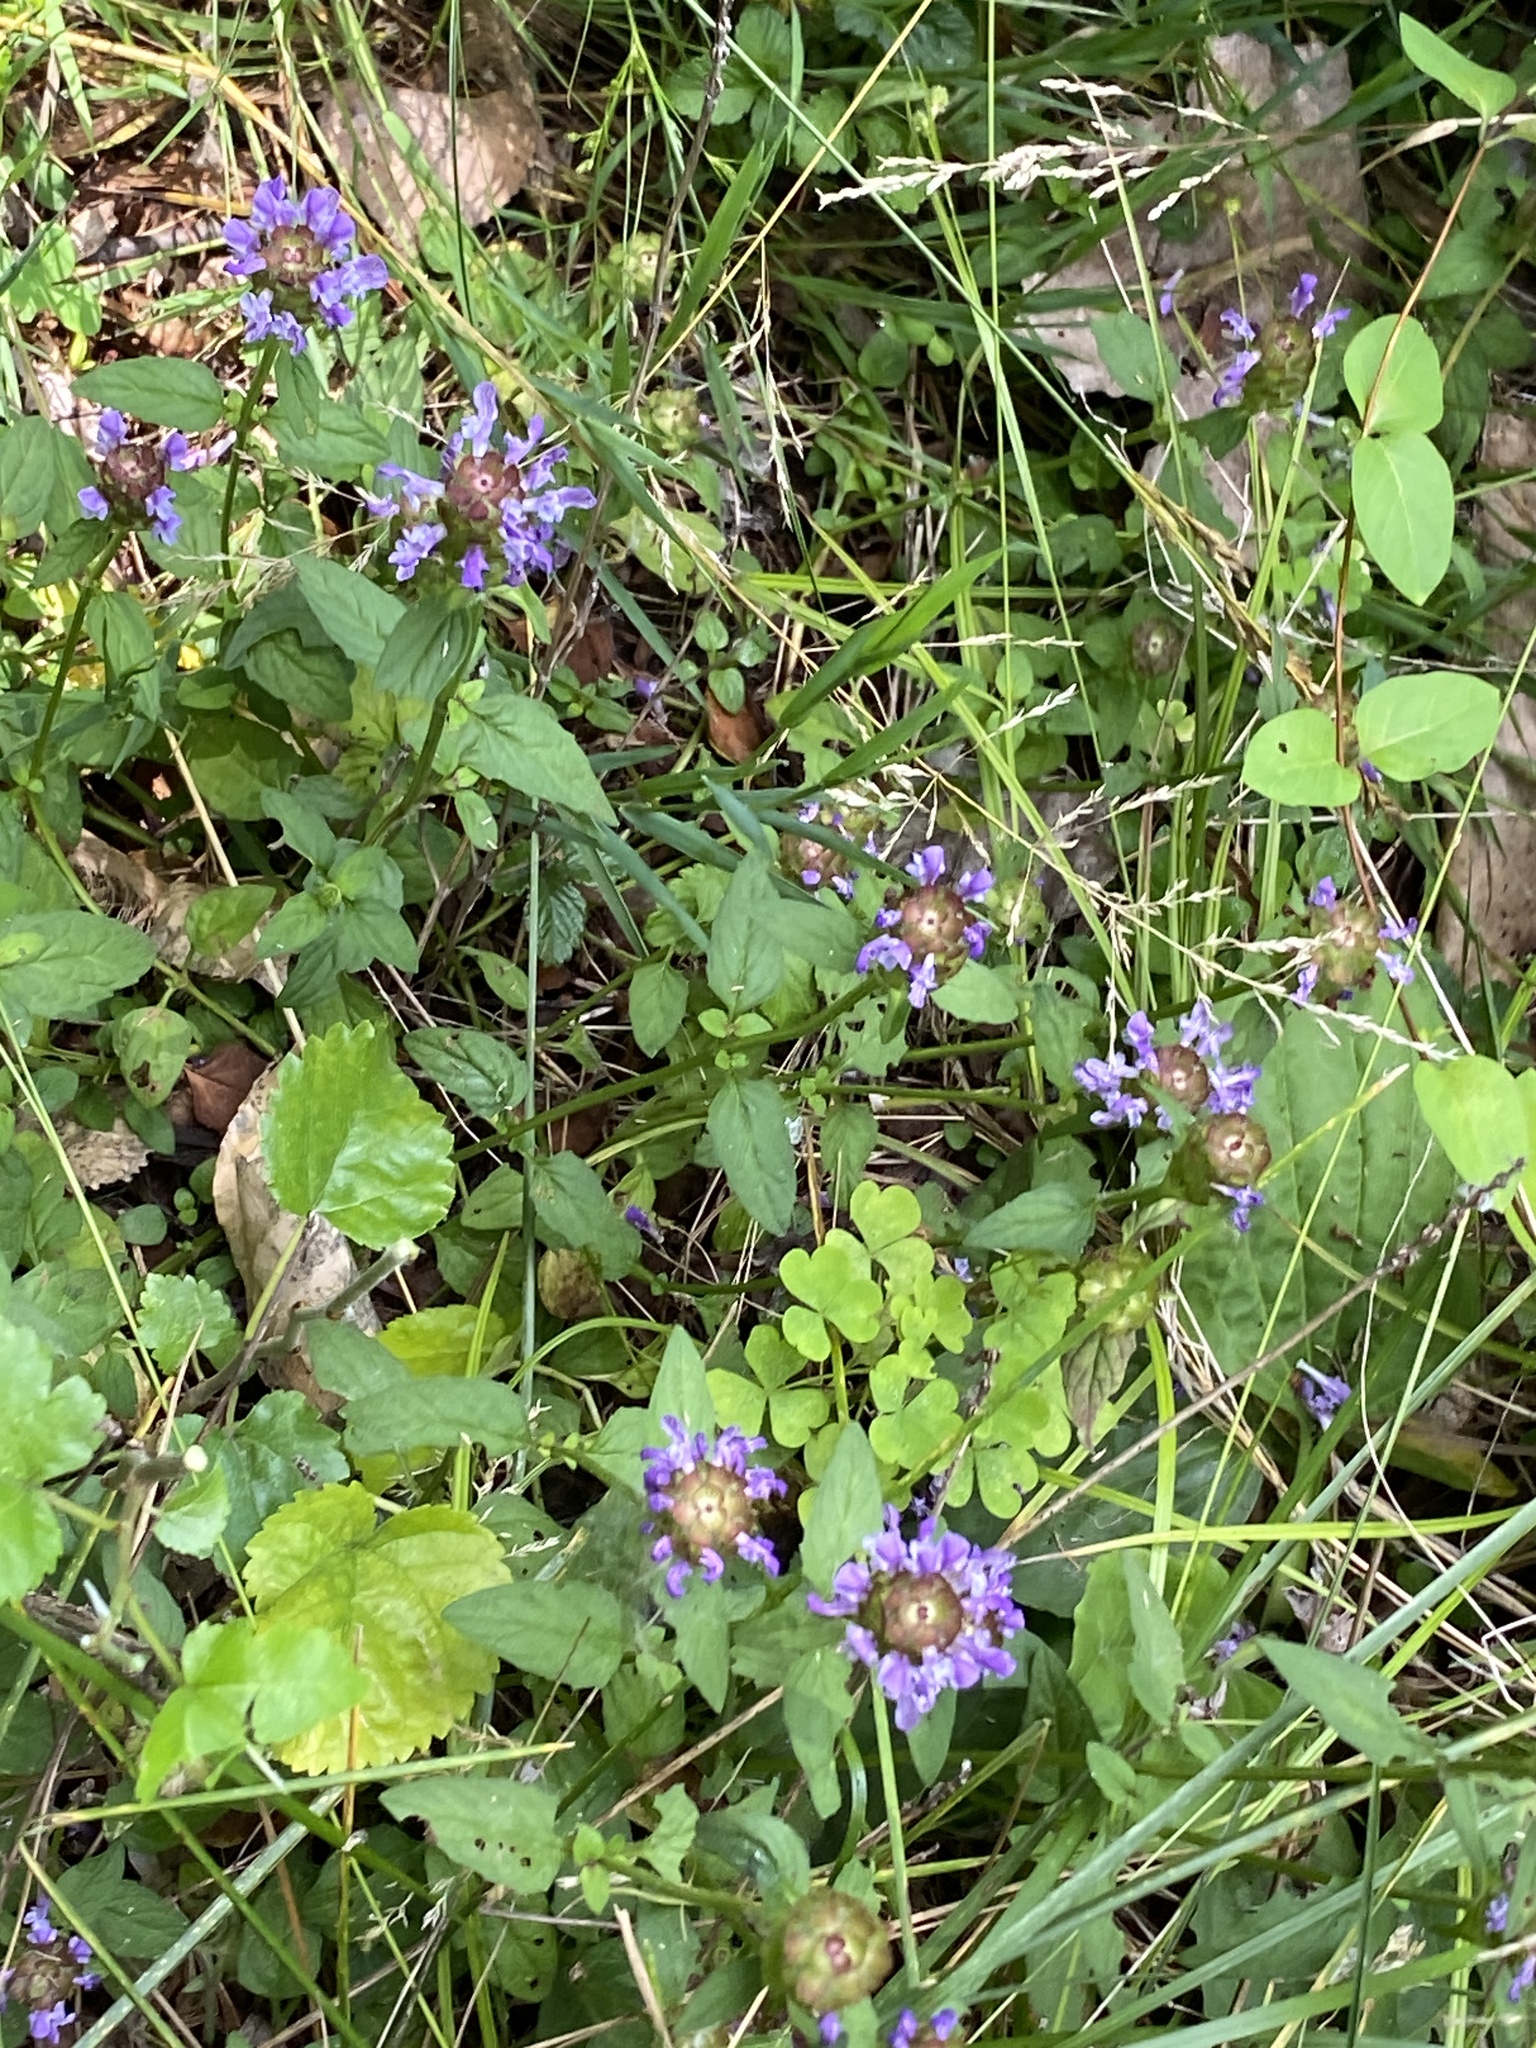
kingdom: Plantae
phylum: Tracheophyta
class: Magnoliopsida
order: Lamiales
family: Lamiaceae
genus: Prunella
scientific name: Prunella vulgaris
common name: Heal-all
